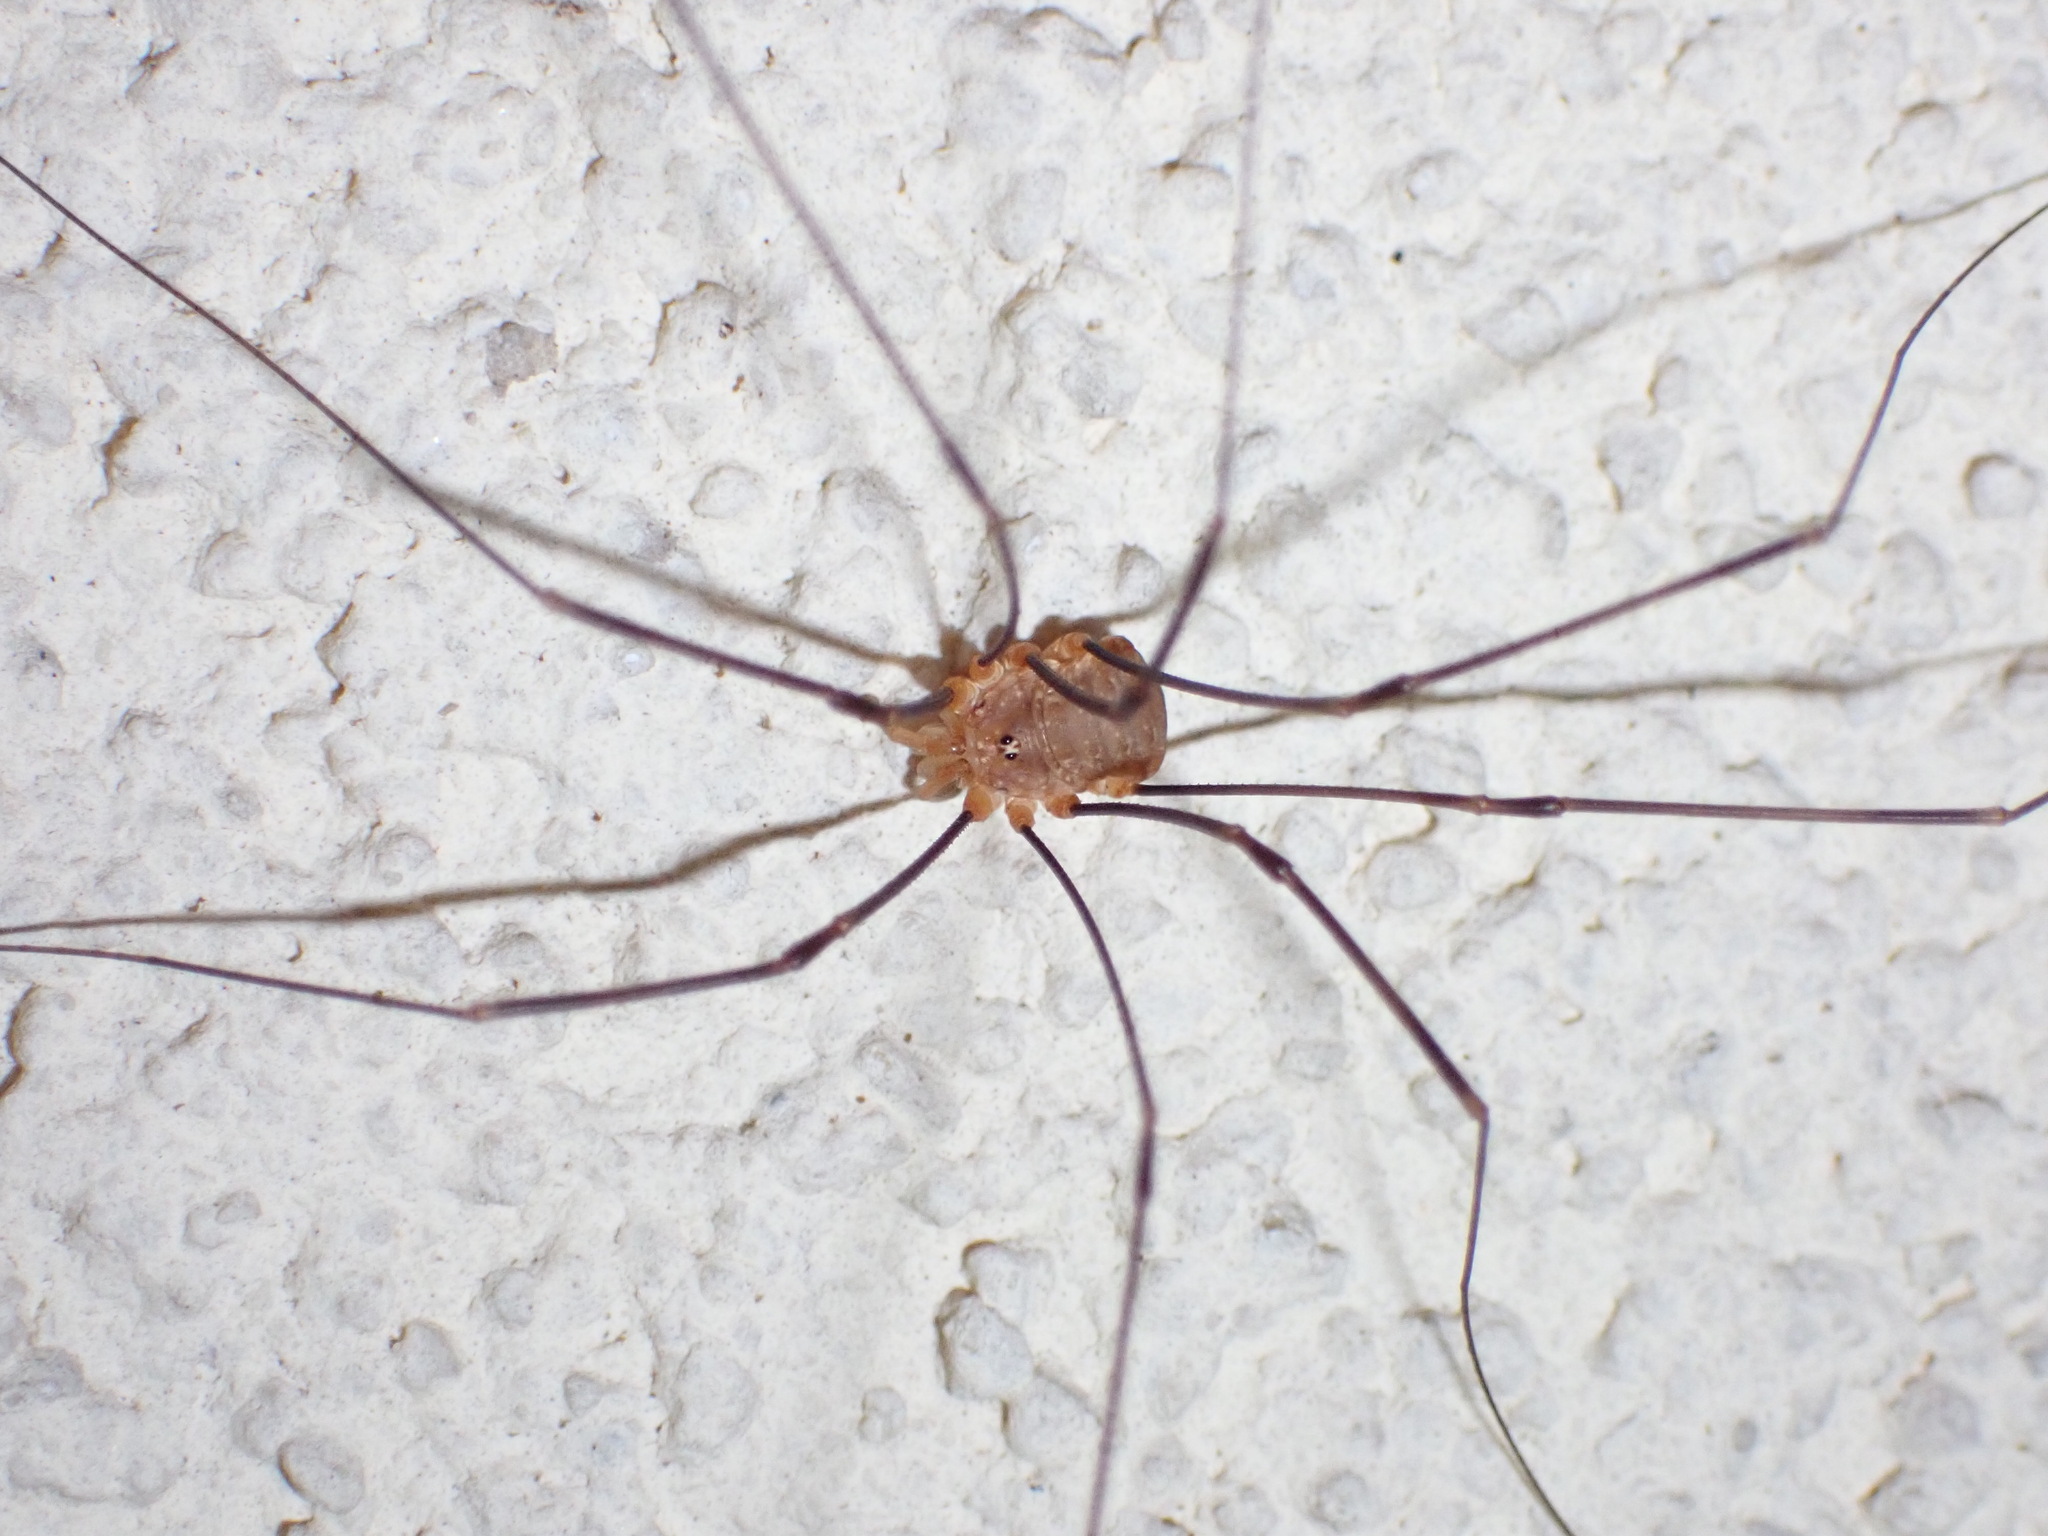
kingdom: Animalia
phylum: Arthropoda
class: Arachnida
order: Opiliones
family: Phalangiidae
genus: Opilio
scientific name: Opilio canestrinii
